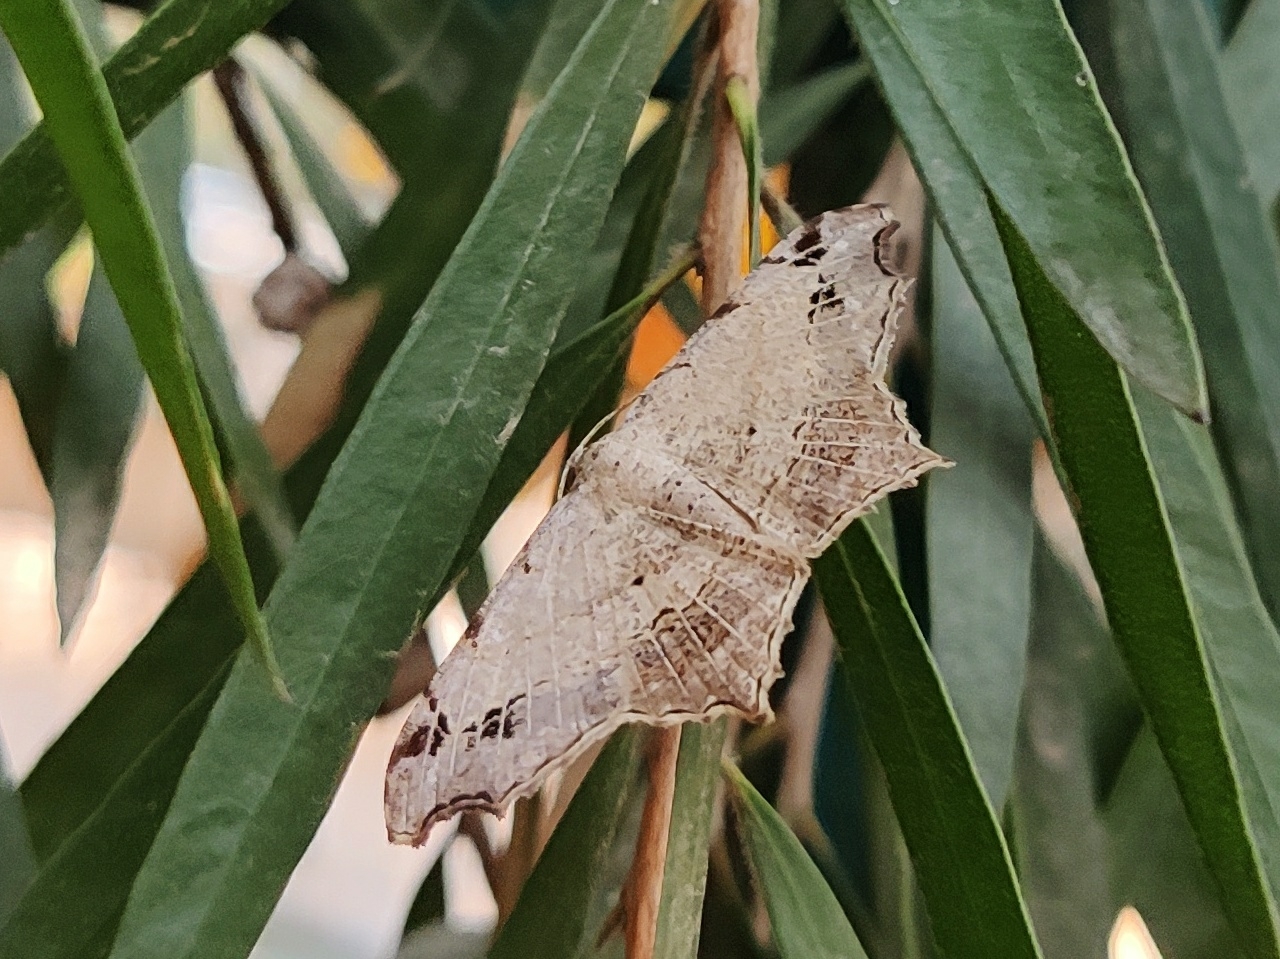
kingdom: Animalia
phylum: Arthropoda
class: Insecta
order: Lepidoptera
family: Geometridae
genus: Chiasmia
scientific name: Chiasmia emersaria
